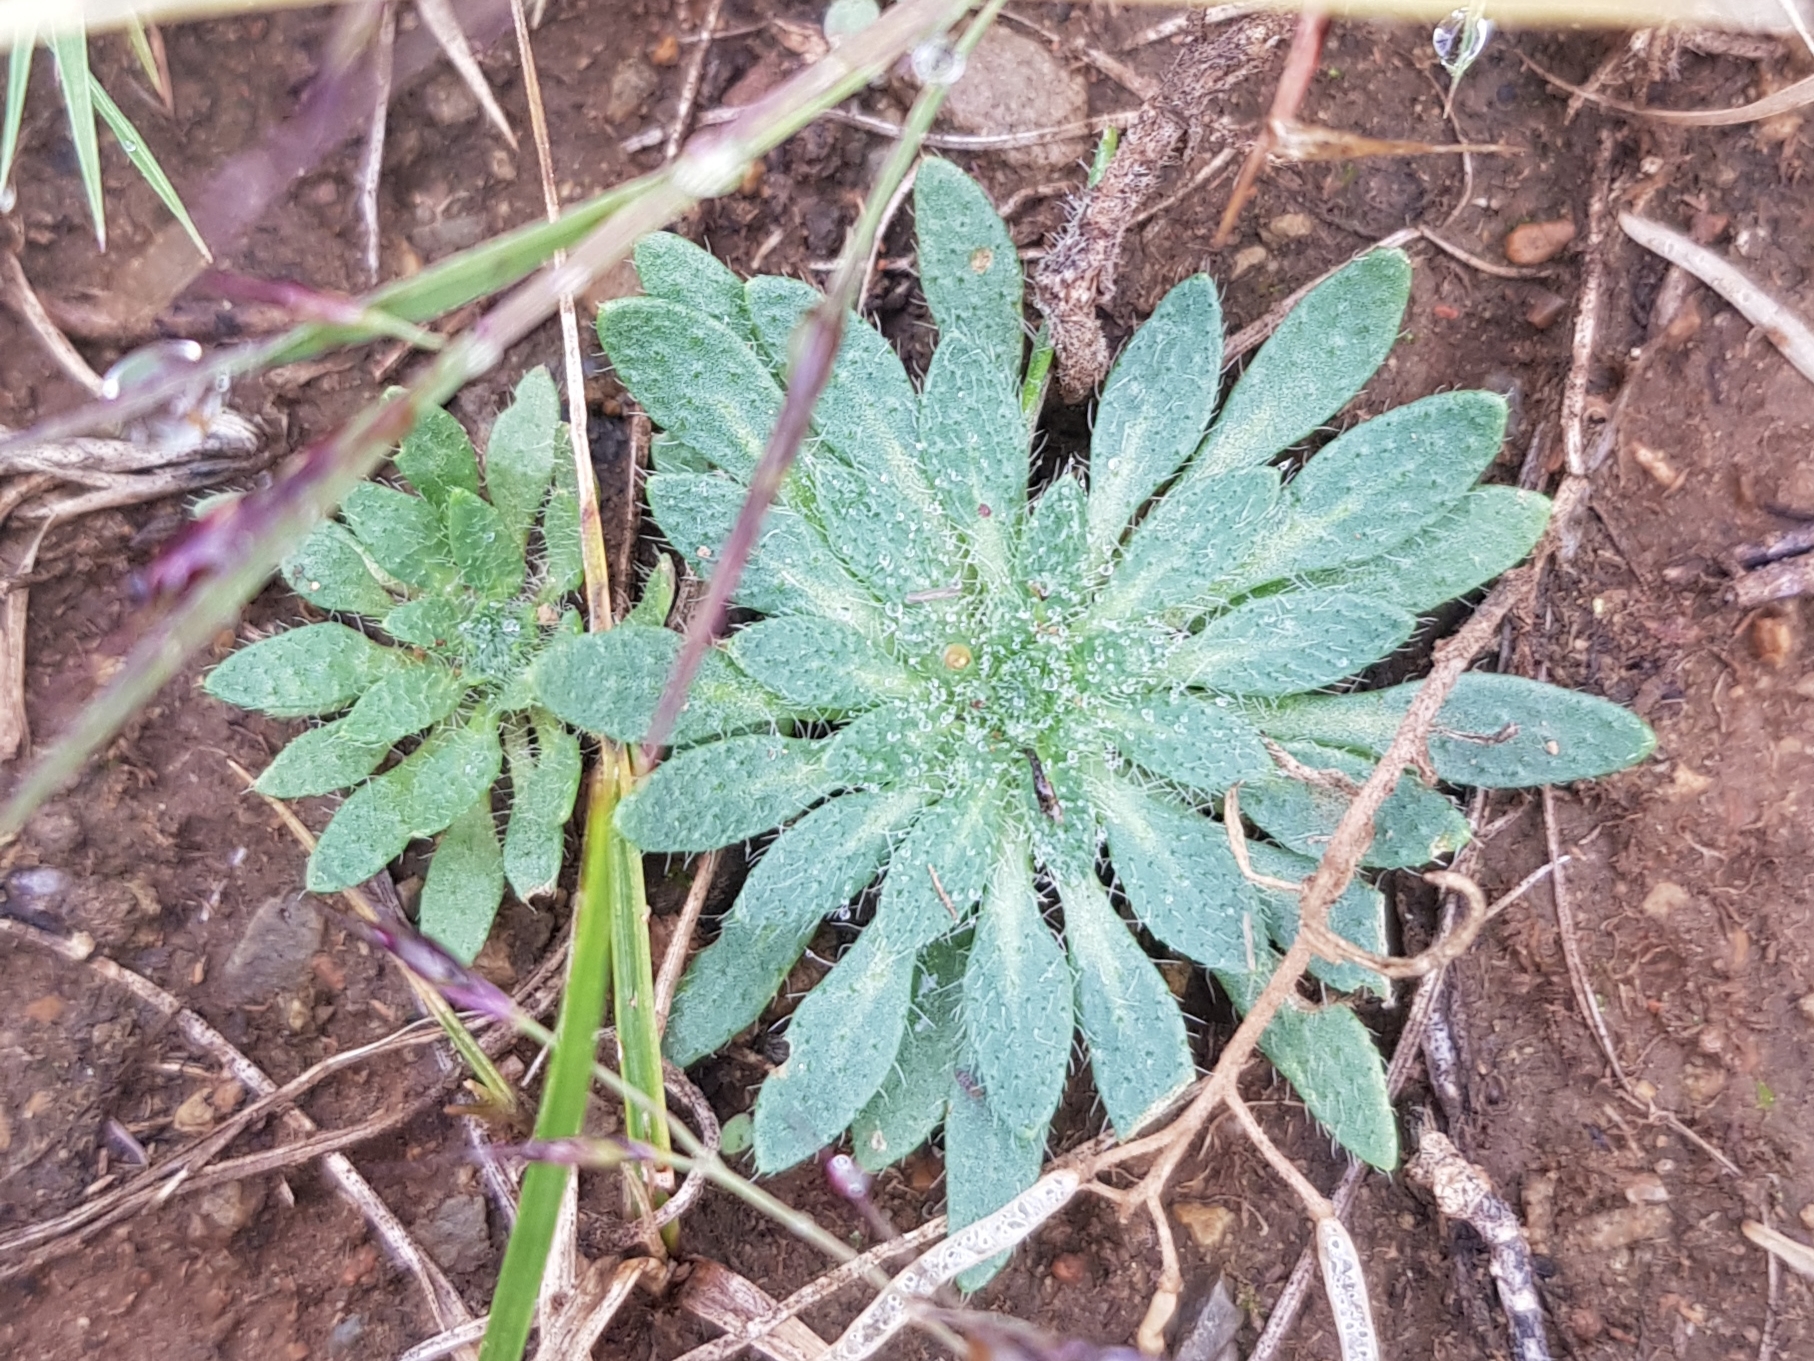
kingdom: Plantae
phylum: Tracheophyta
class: Magnoliopsida
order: Brassicales
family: Brassicaceae
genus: Clausia
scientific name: Clausia aprica
